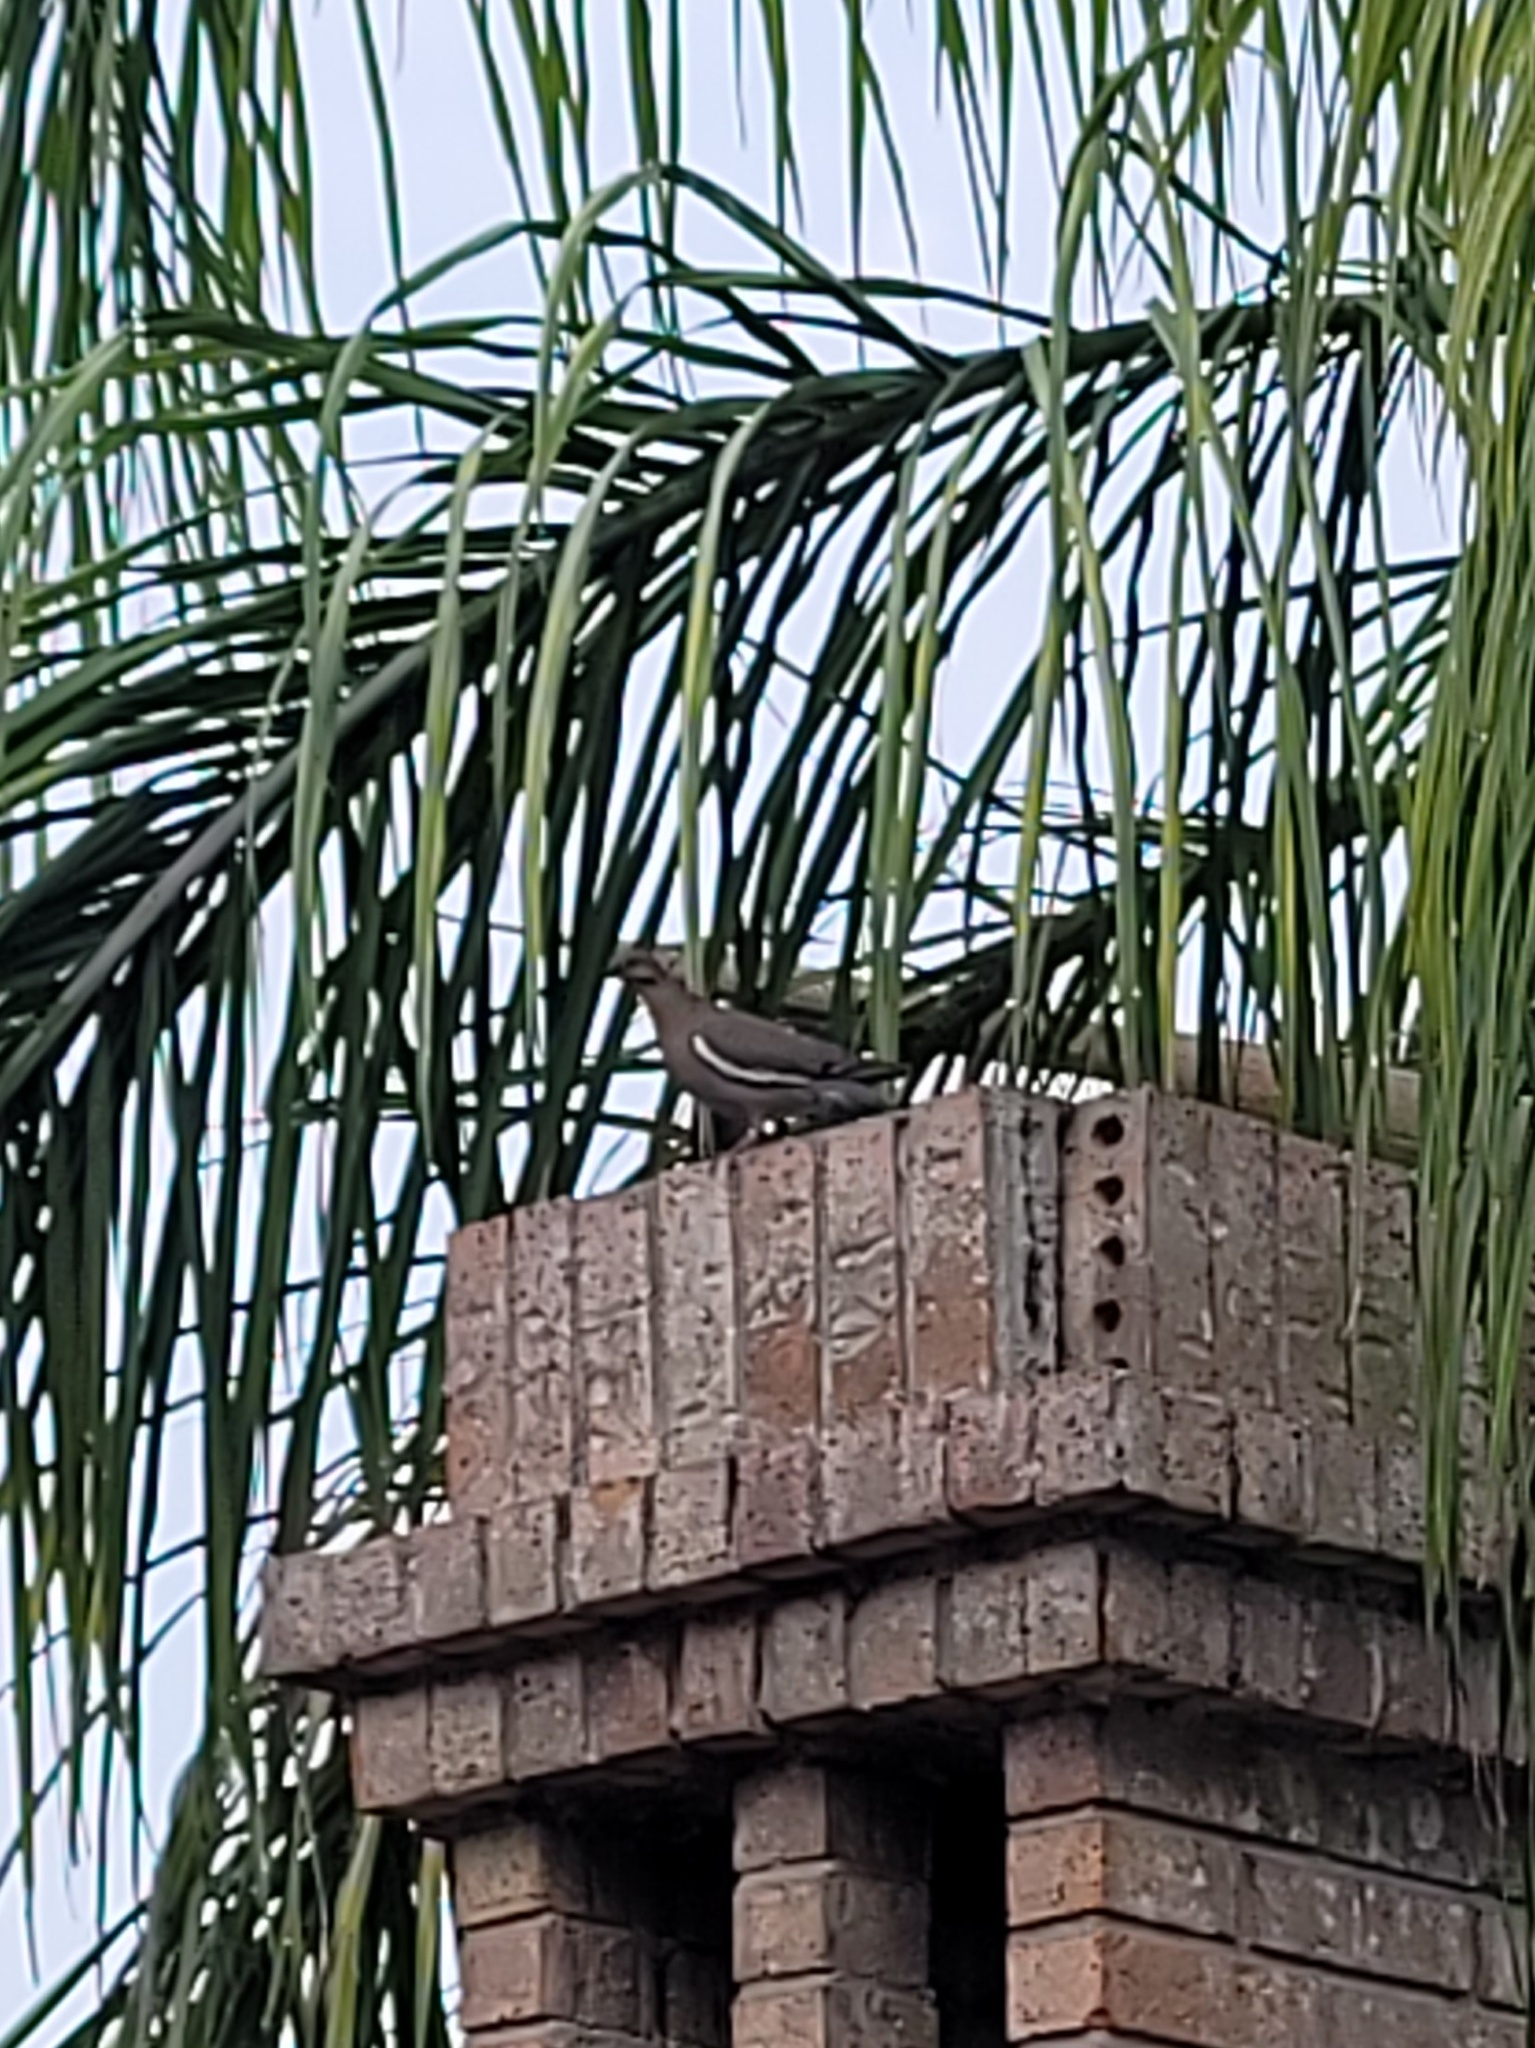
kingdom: Animalia
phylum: Chordata
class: Aves
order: Columbiformes
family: Columbidae
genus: Zenaida
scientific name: Zenaida asiatica
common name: White-winged dove
